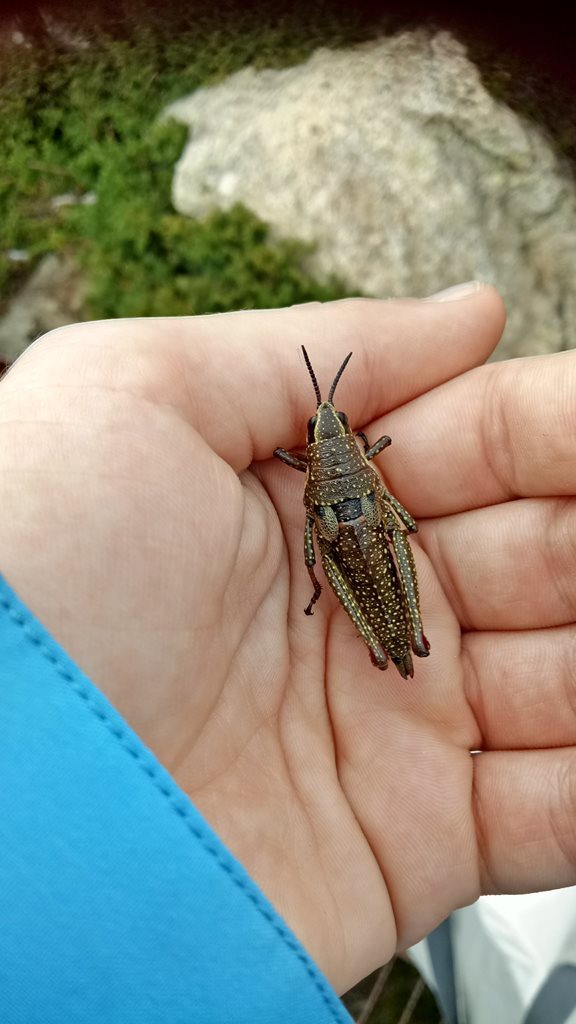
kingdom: Animalia
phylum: Arthropoda
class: Insecta
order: Orthoptera
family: Pyrgomorphidae
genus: Monistria
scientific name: Monistria concinna
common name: Southern pyrgomorph
